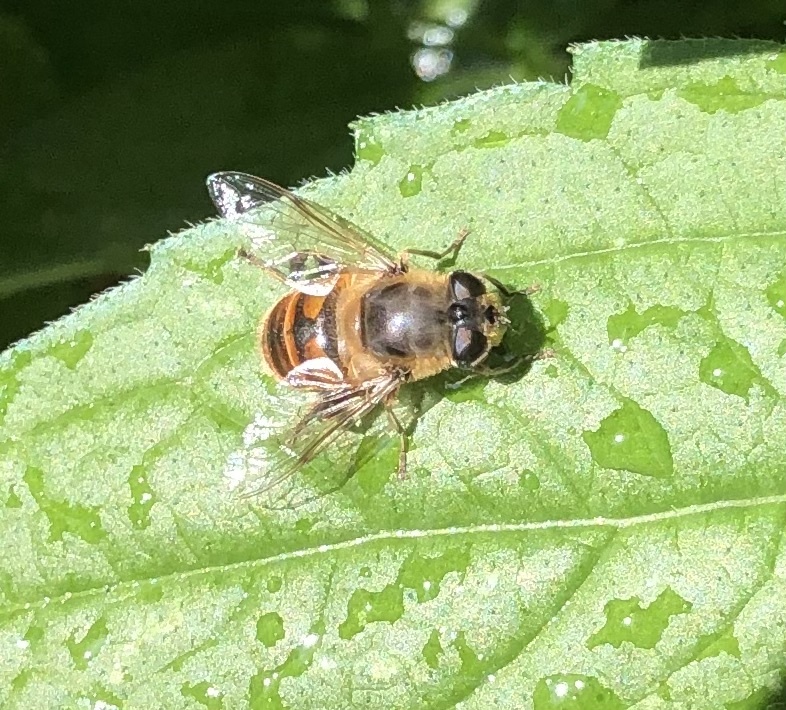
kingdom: Animalia
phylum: Arthropoda
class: Insecta
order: Diptera
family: Syrphidae
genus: Eristalis
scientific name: Eristalis tenax
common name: Drone fly
